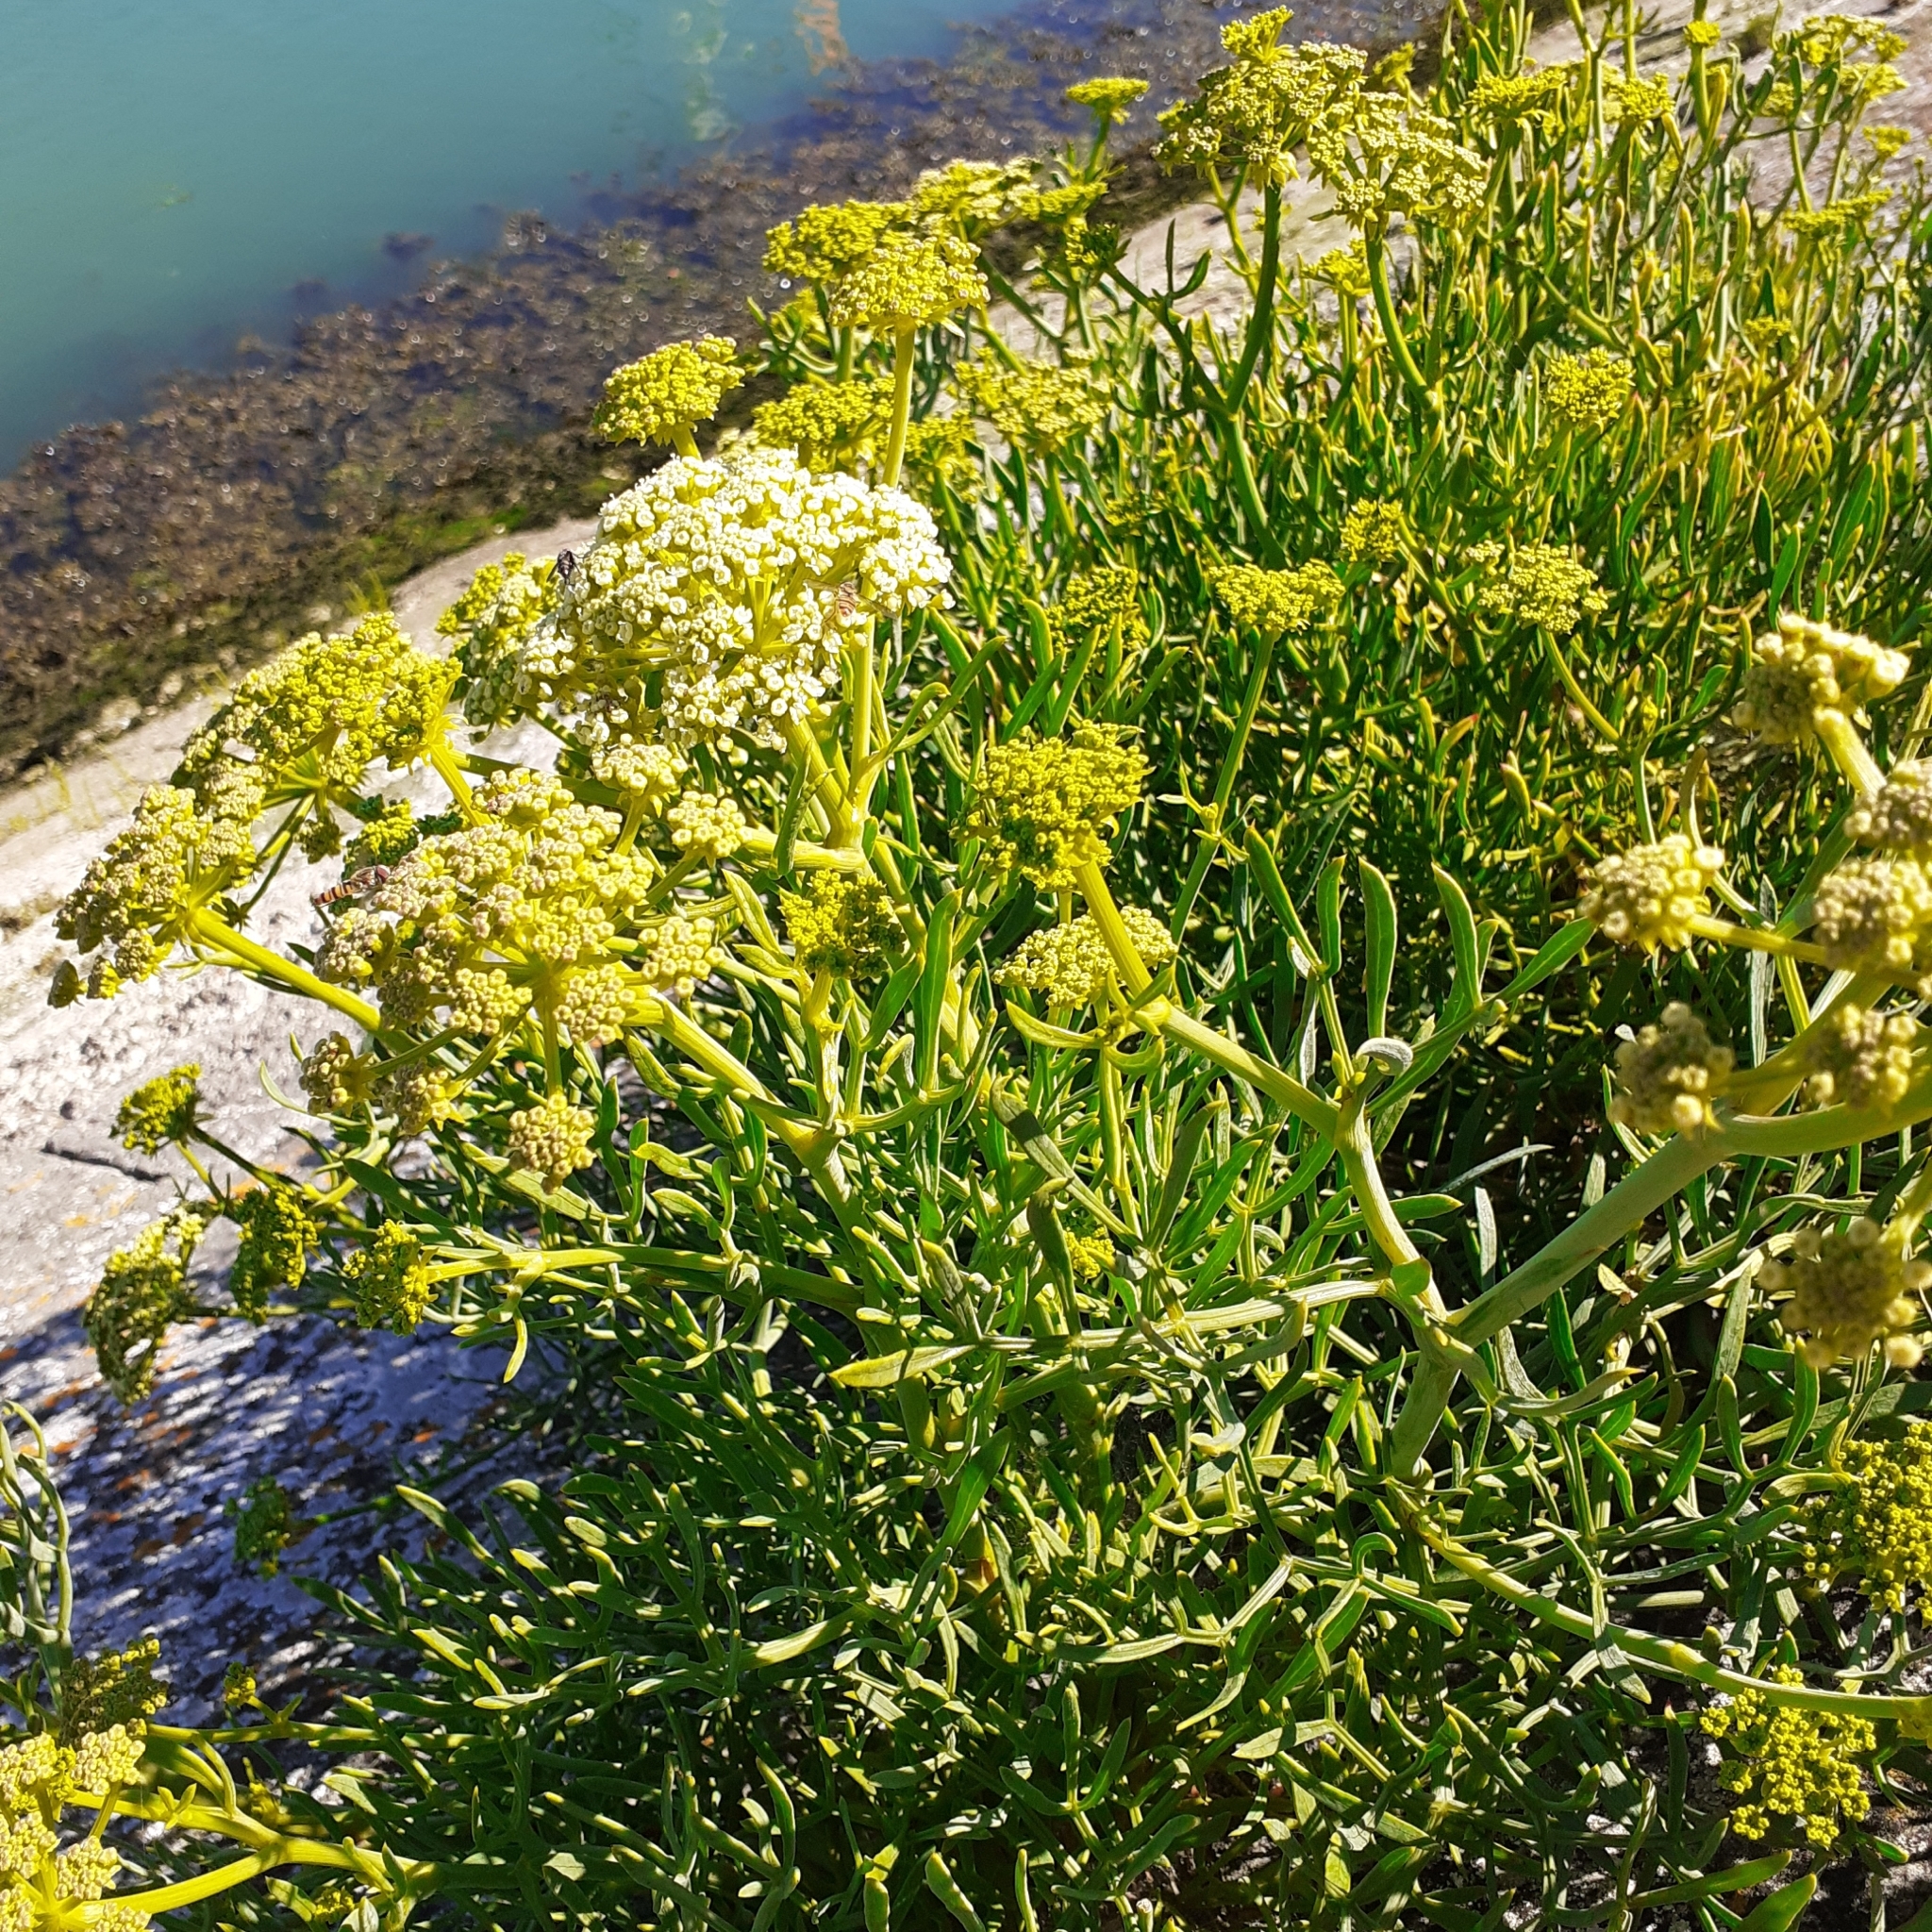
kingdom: Plantae
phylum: Tracheophyta
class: Magnoliopsida
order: Apiales
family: Apiaceae
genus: Crithmum
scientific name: Crithmum maritimum
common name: Rock samphire
